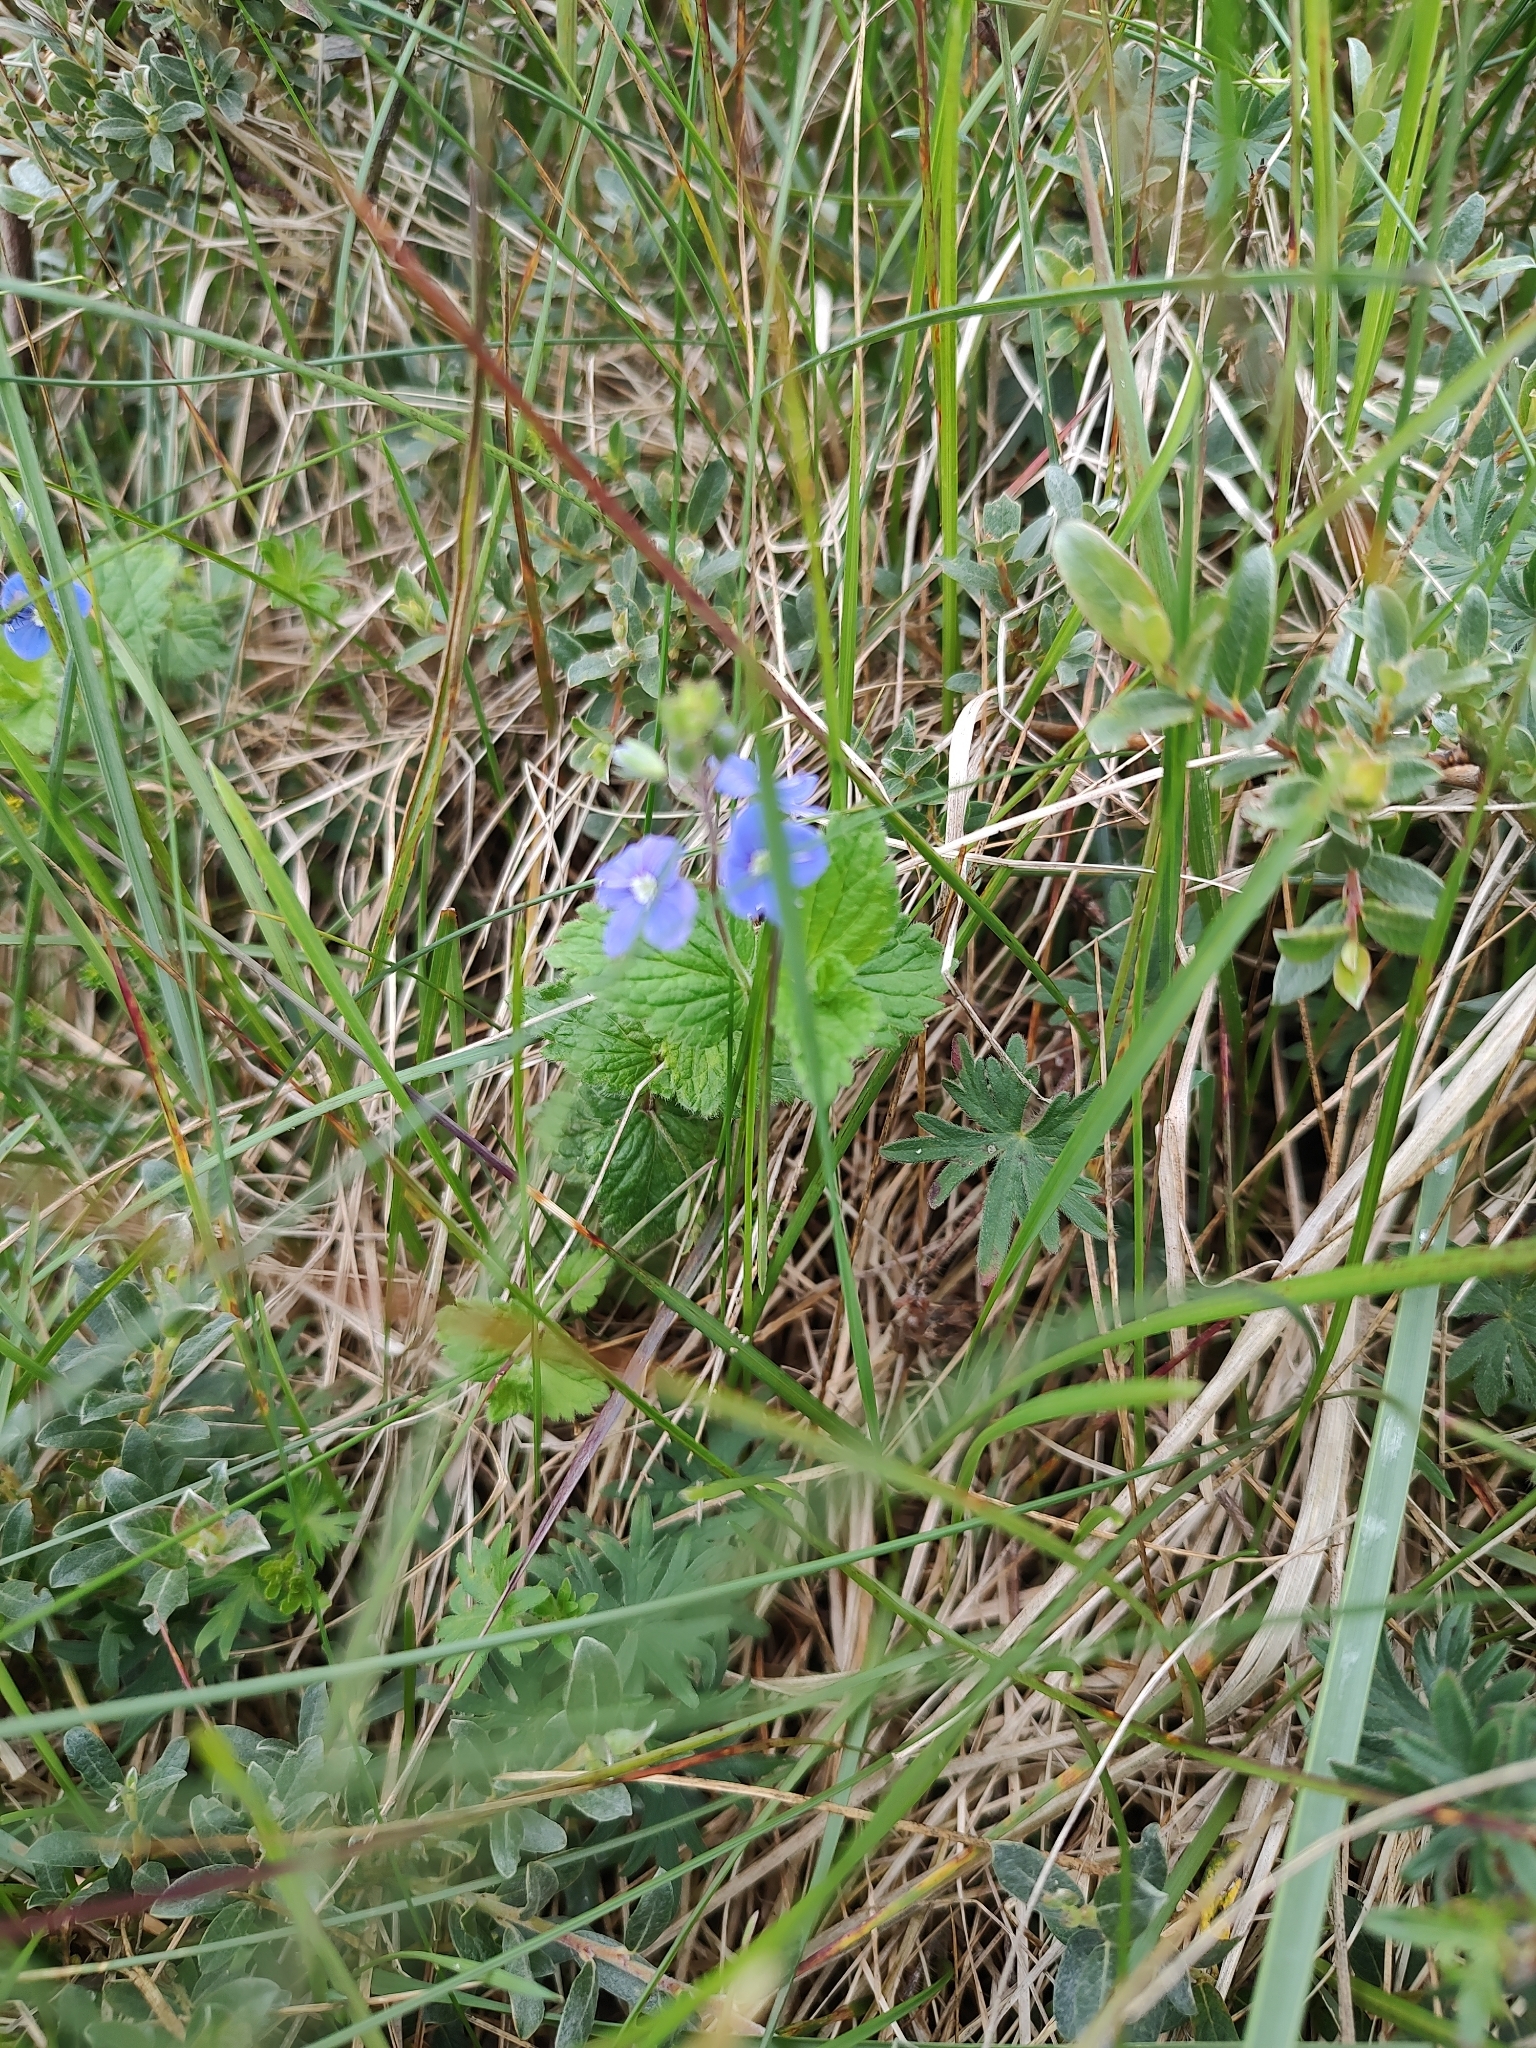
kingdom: Plantae
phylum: Tracheophyta
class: Magnoliopsida
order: Lamiales
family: Plantaginaceae
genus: Veronica
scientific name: Veronica chamaedrys
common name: Germander speedwell
